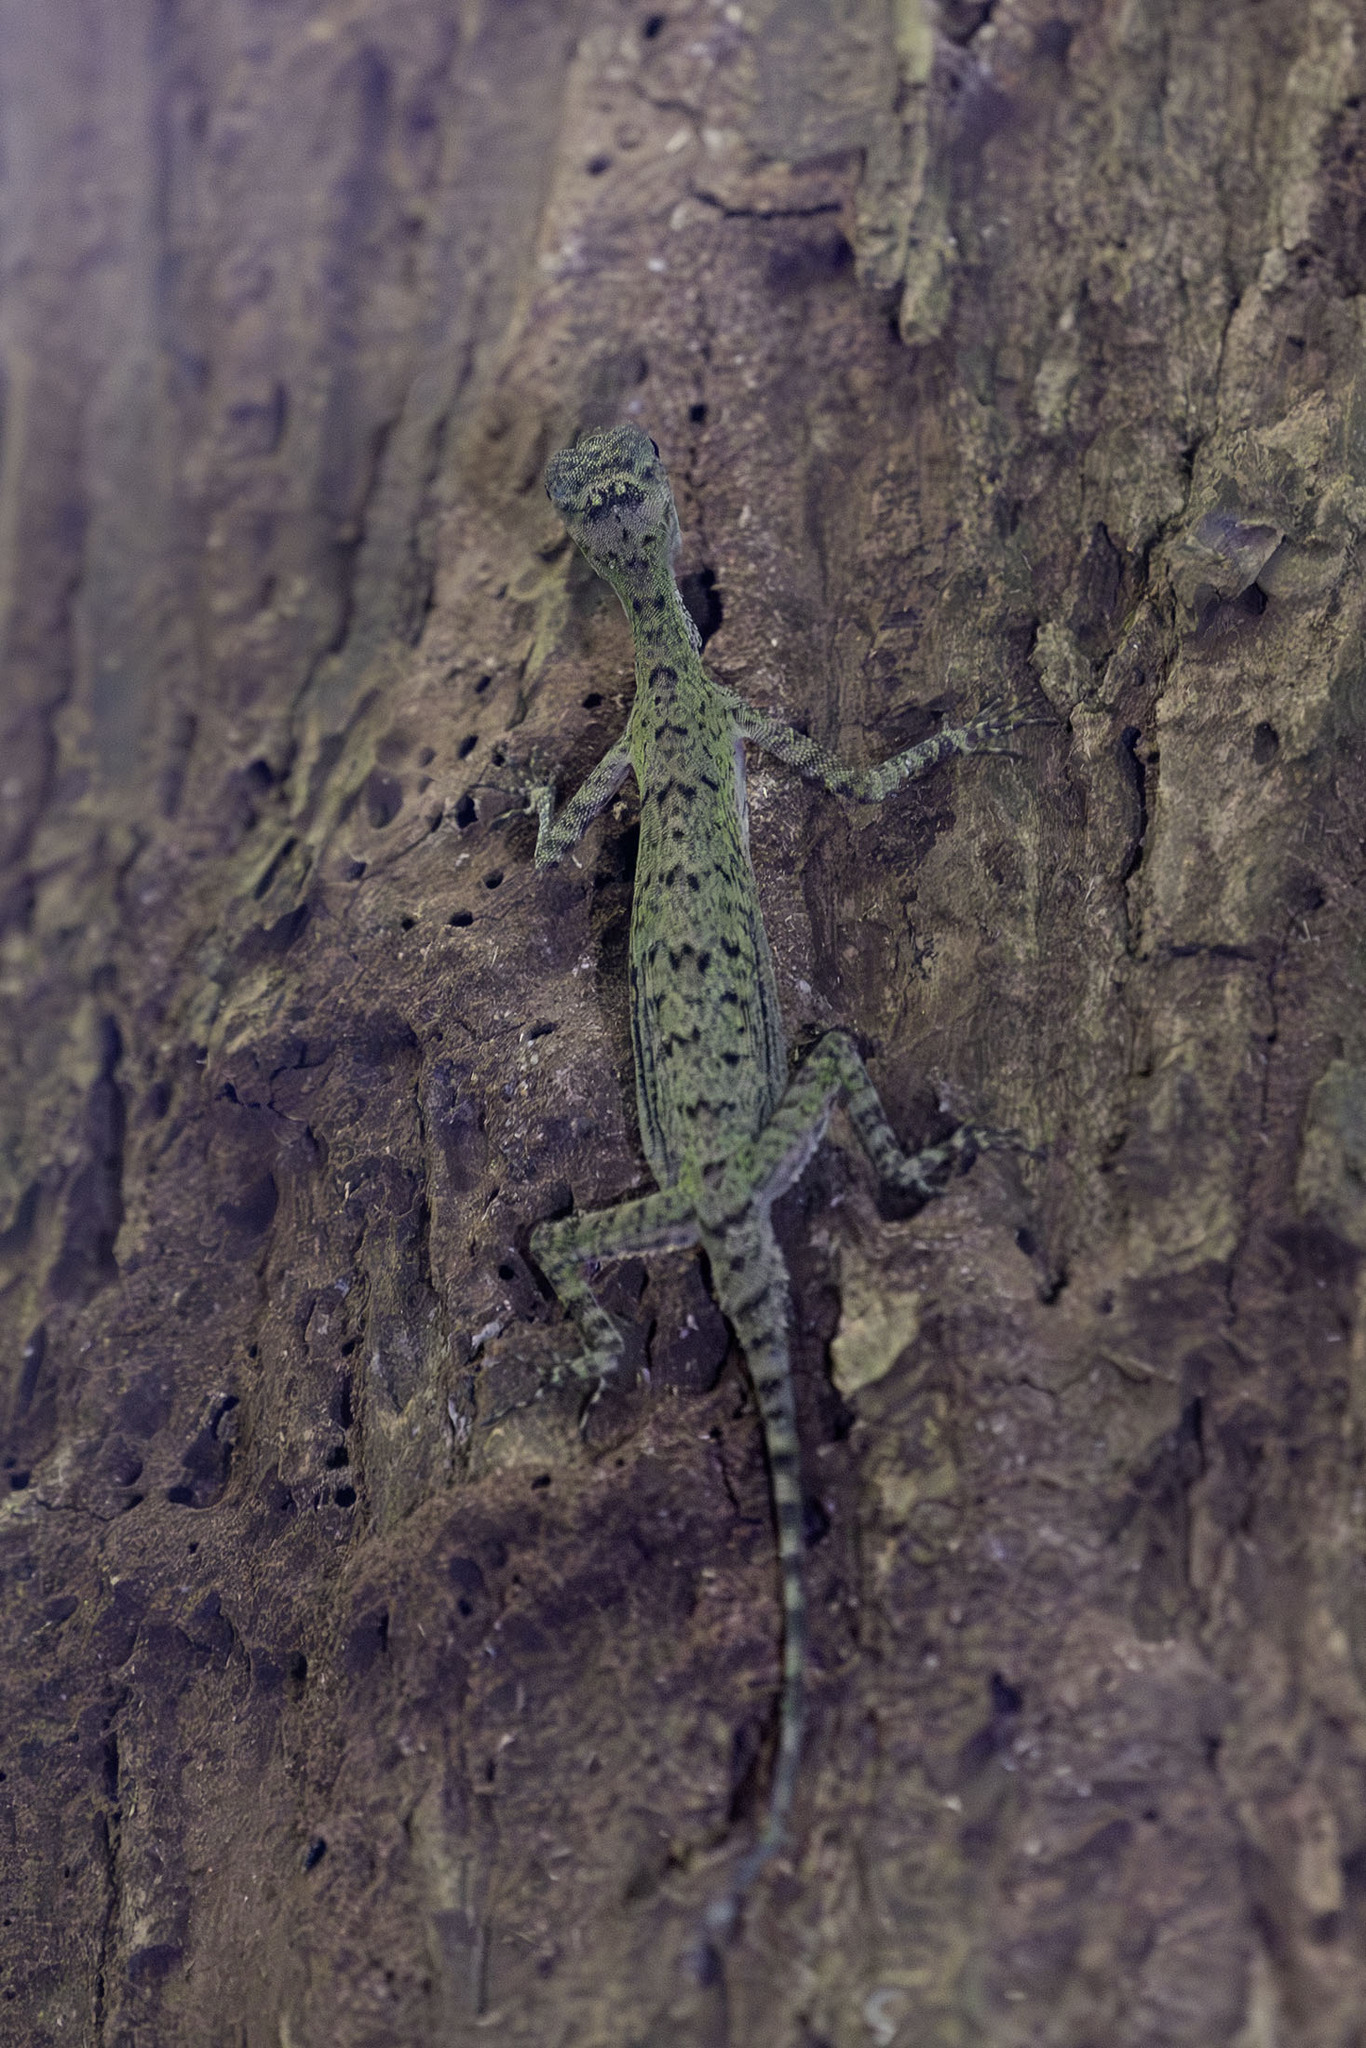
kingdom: Animalia
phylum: Chordata
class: Squamata
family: Agamidae
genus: Draco
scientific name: Draco melanopogon
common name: Black-barbed flying dragon
